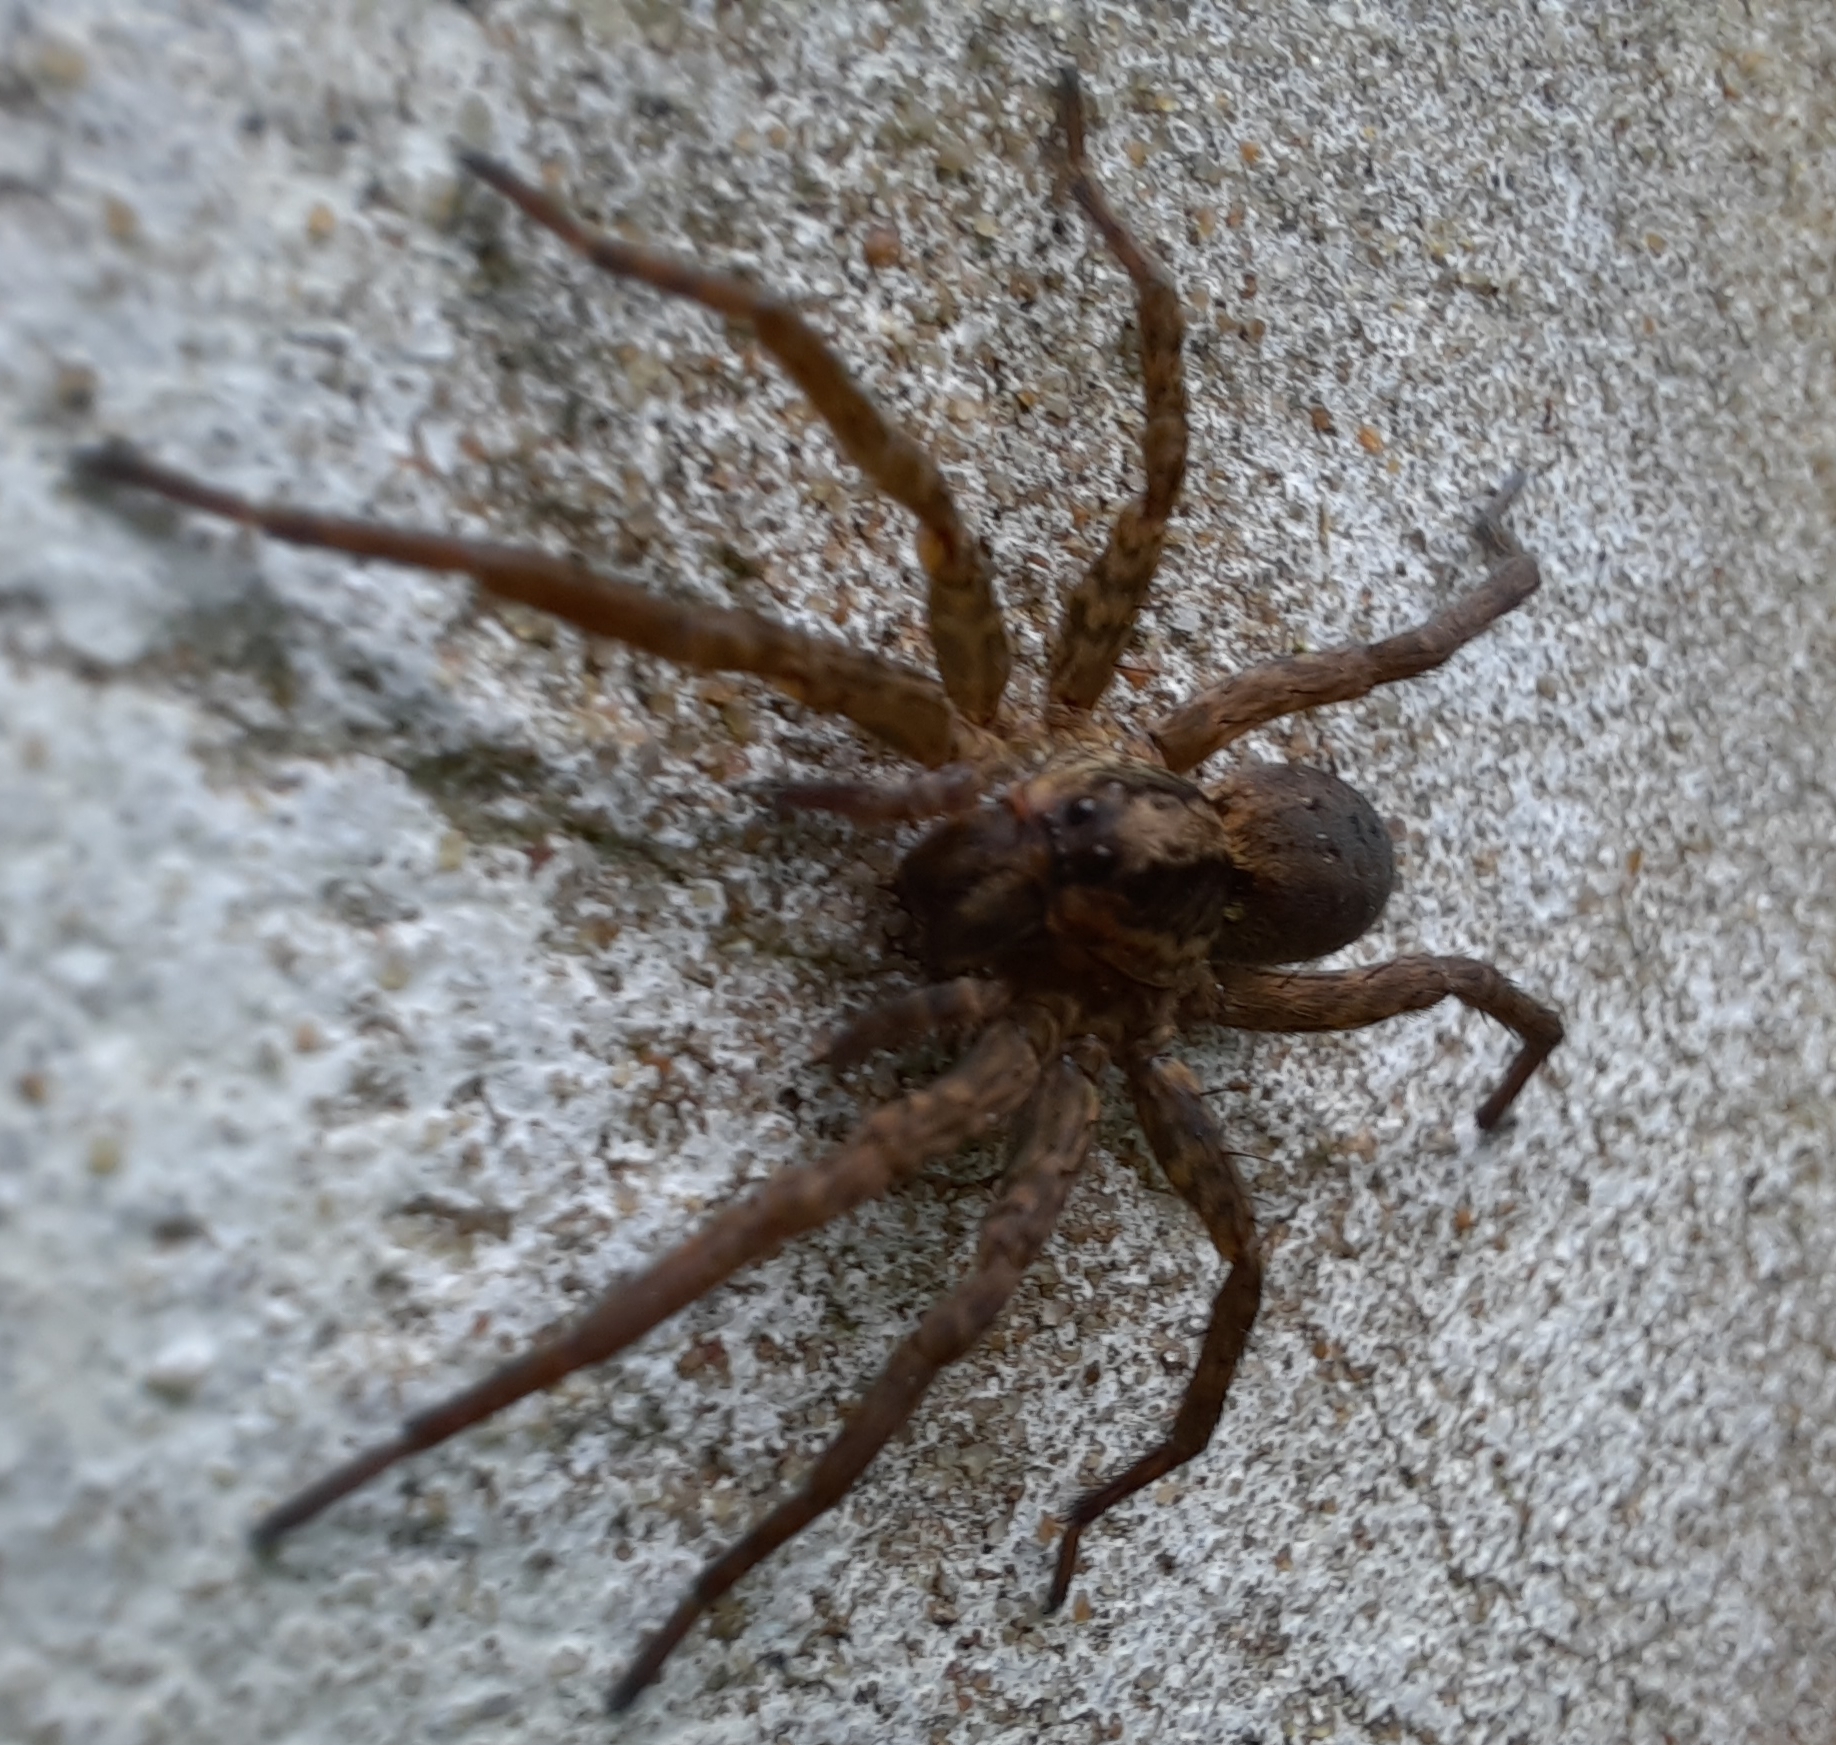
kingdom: Animalia
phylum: Arthropoda
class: Arachnida
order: Araneae
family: Lycosidae
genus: Alopecosa
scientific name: Alopecosa moesta
